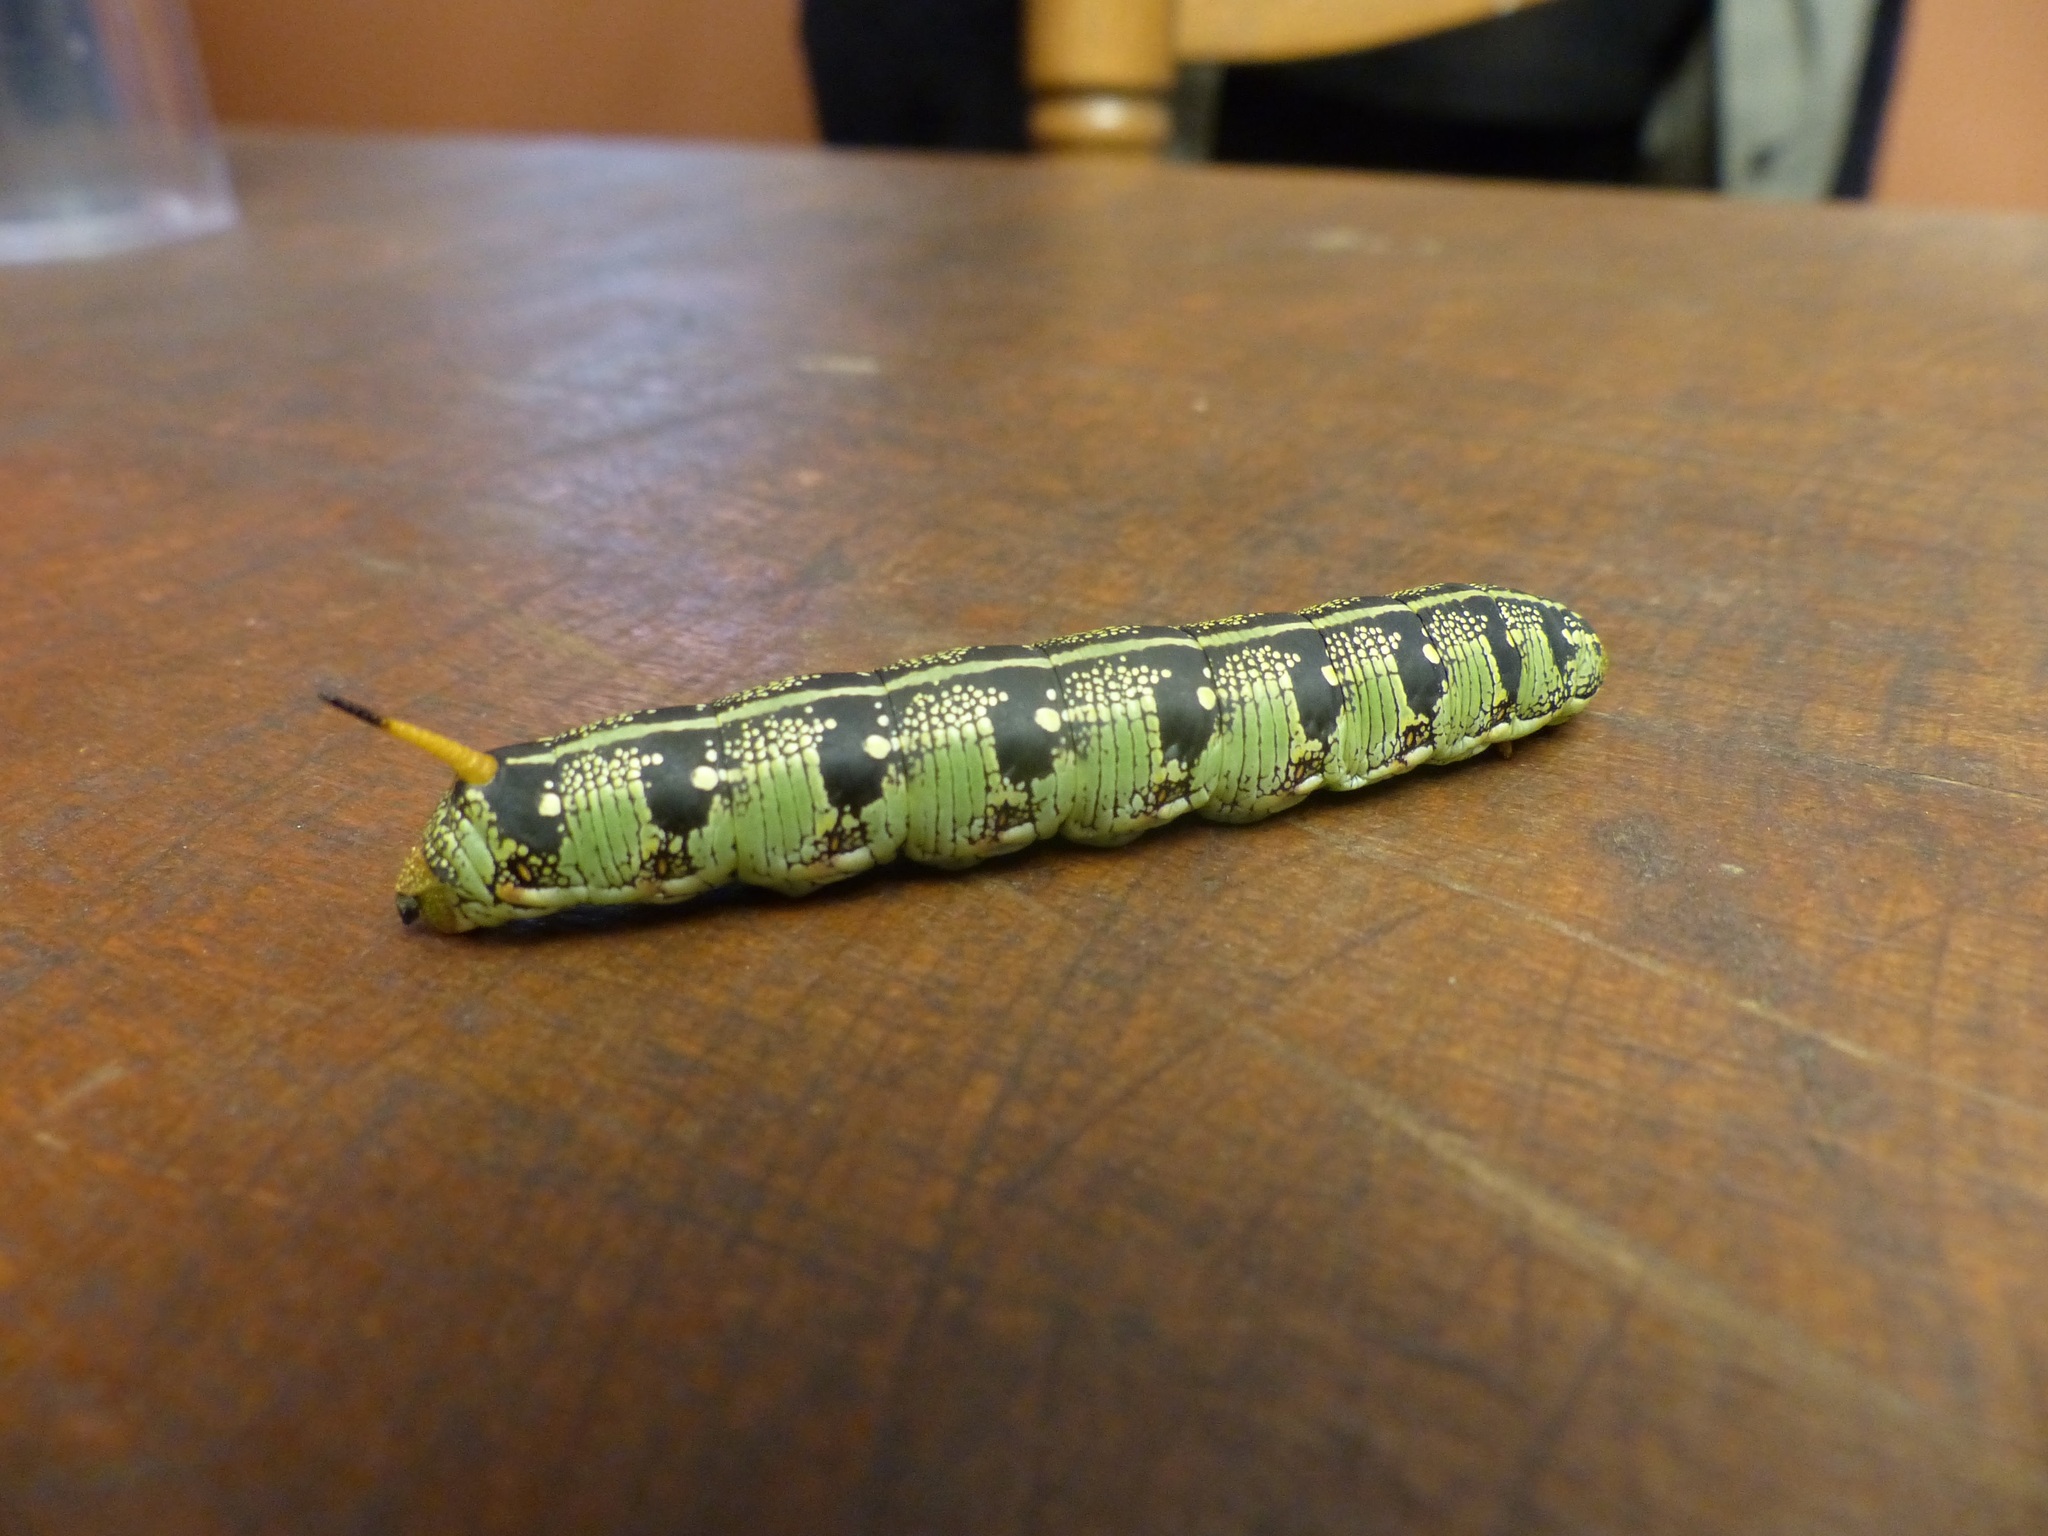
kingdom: Animalia
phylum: Arthropoda
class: Insecta
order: Lepidoptera
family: Sphingidae
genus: Hyles
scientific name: Hyles lineata
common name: White-lined sphinx
